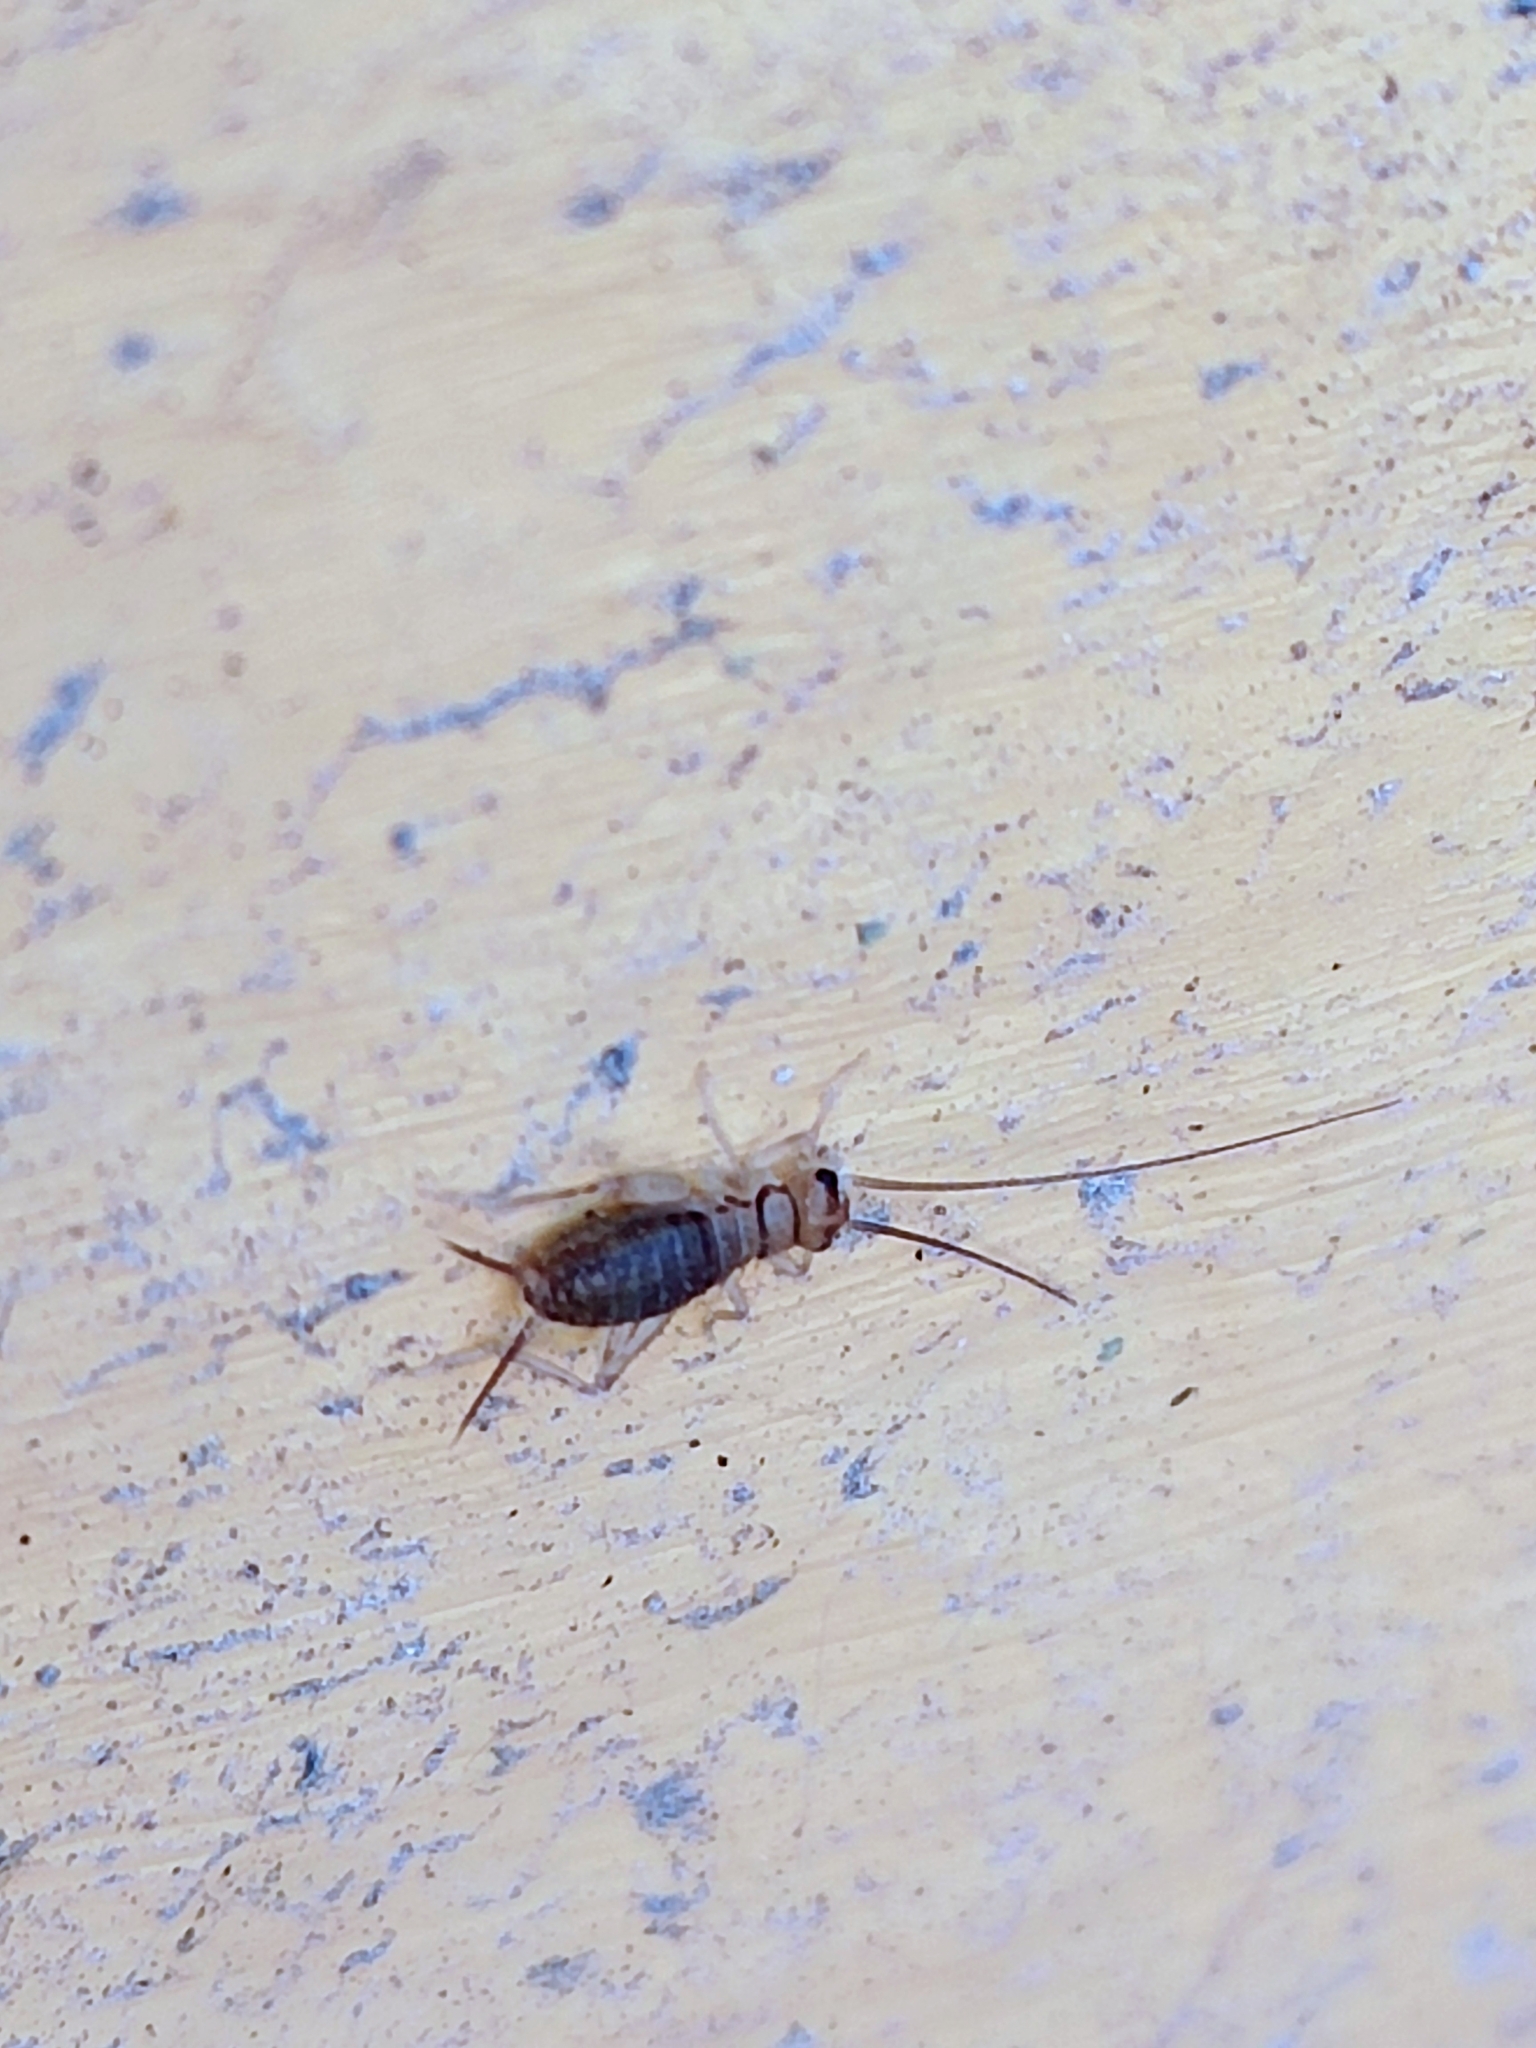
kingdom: Animalia
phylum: Arthropoda
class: Insecta
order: Orthoptera
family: Gryllidae
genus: Gryllodes
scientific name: Gryllodes sigillatus
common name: Tropical house cricket
